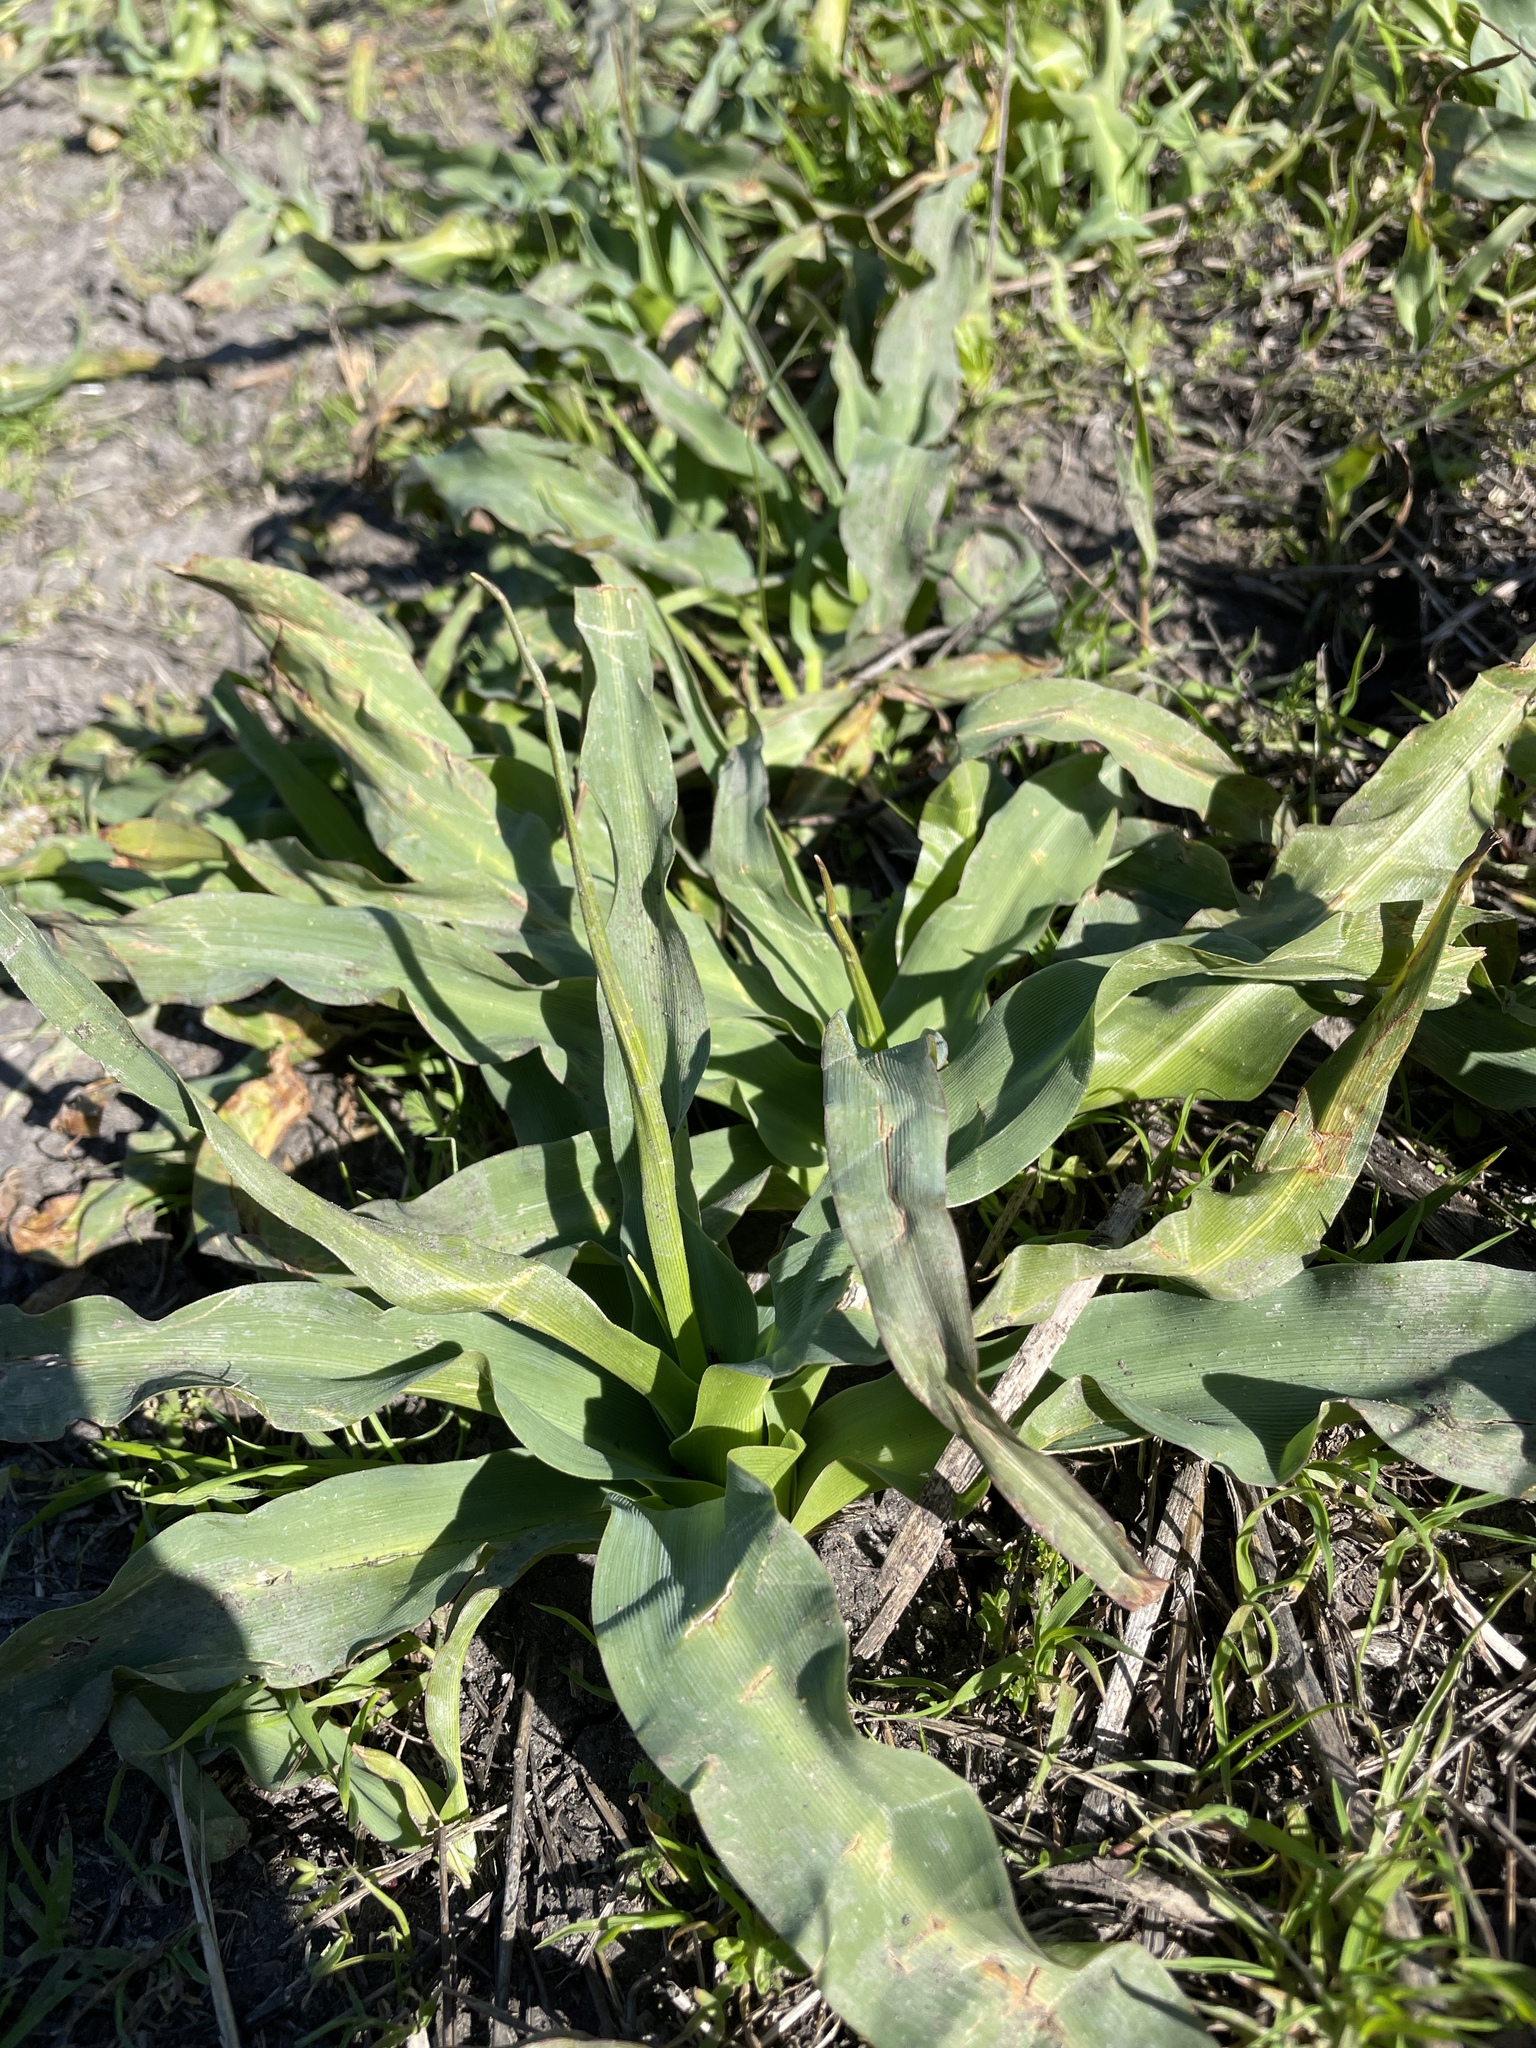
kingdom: Plantae
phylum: Tracheophyta
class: Liliopsida
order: Asparagales
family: Asparagaceae
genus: Chlorogalum
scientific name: Chlorogalum pomeridianum
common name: Amole
